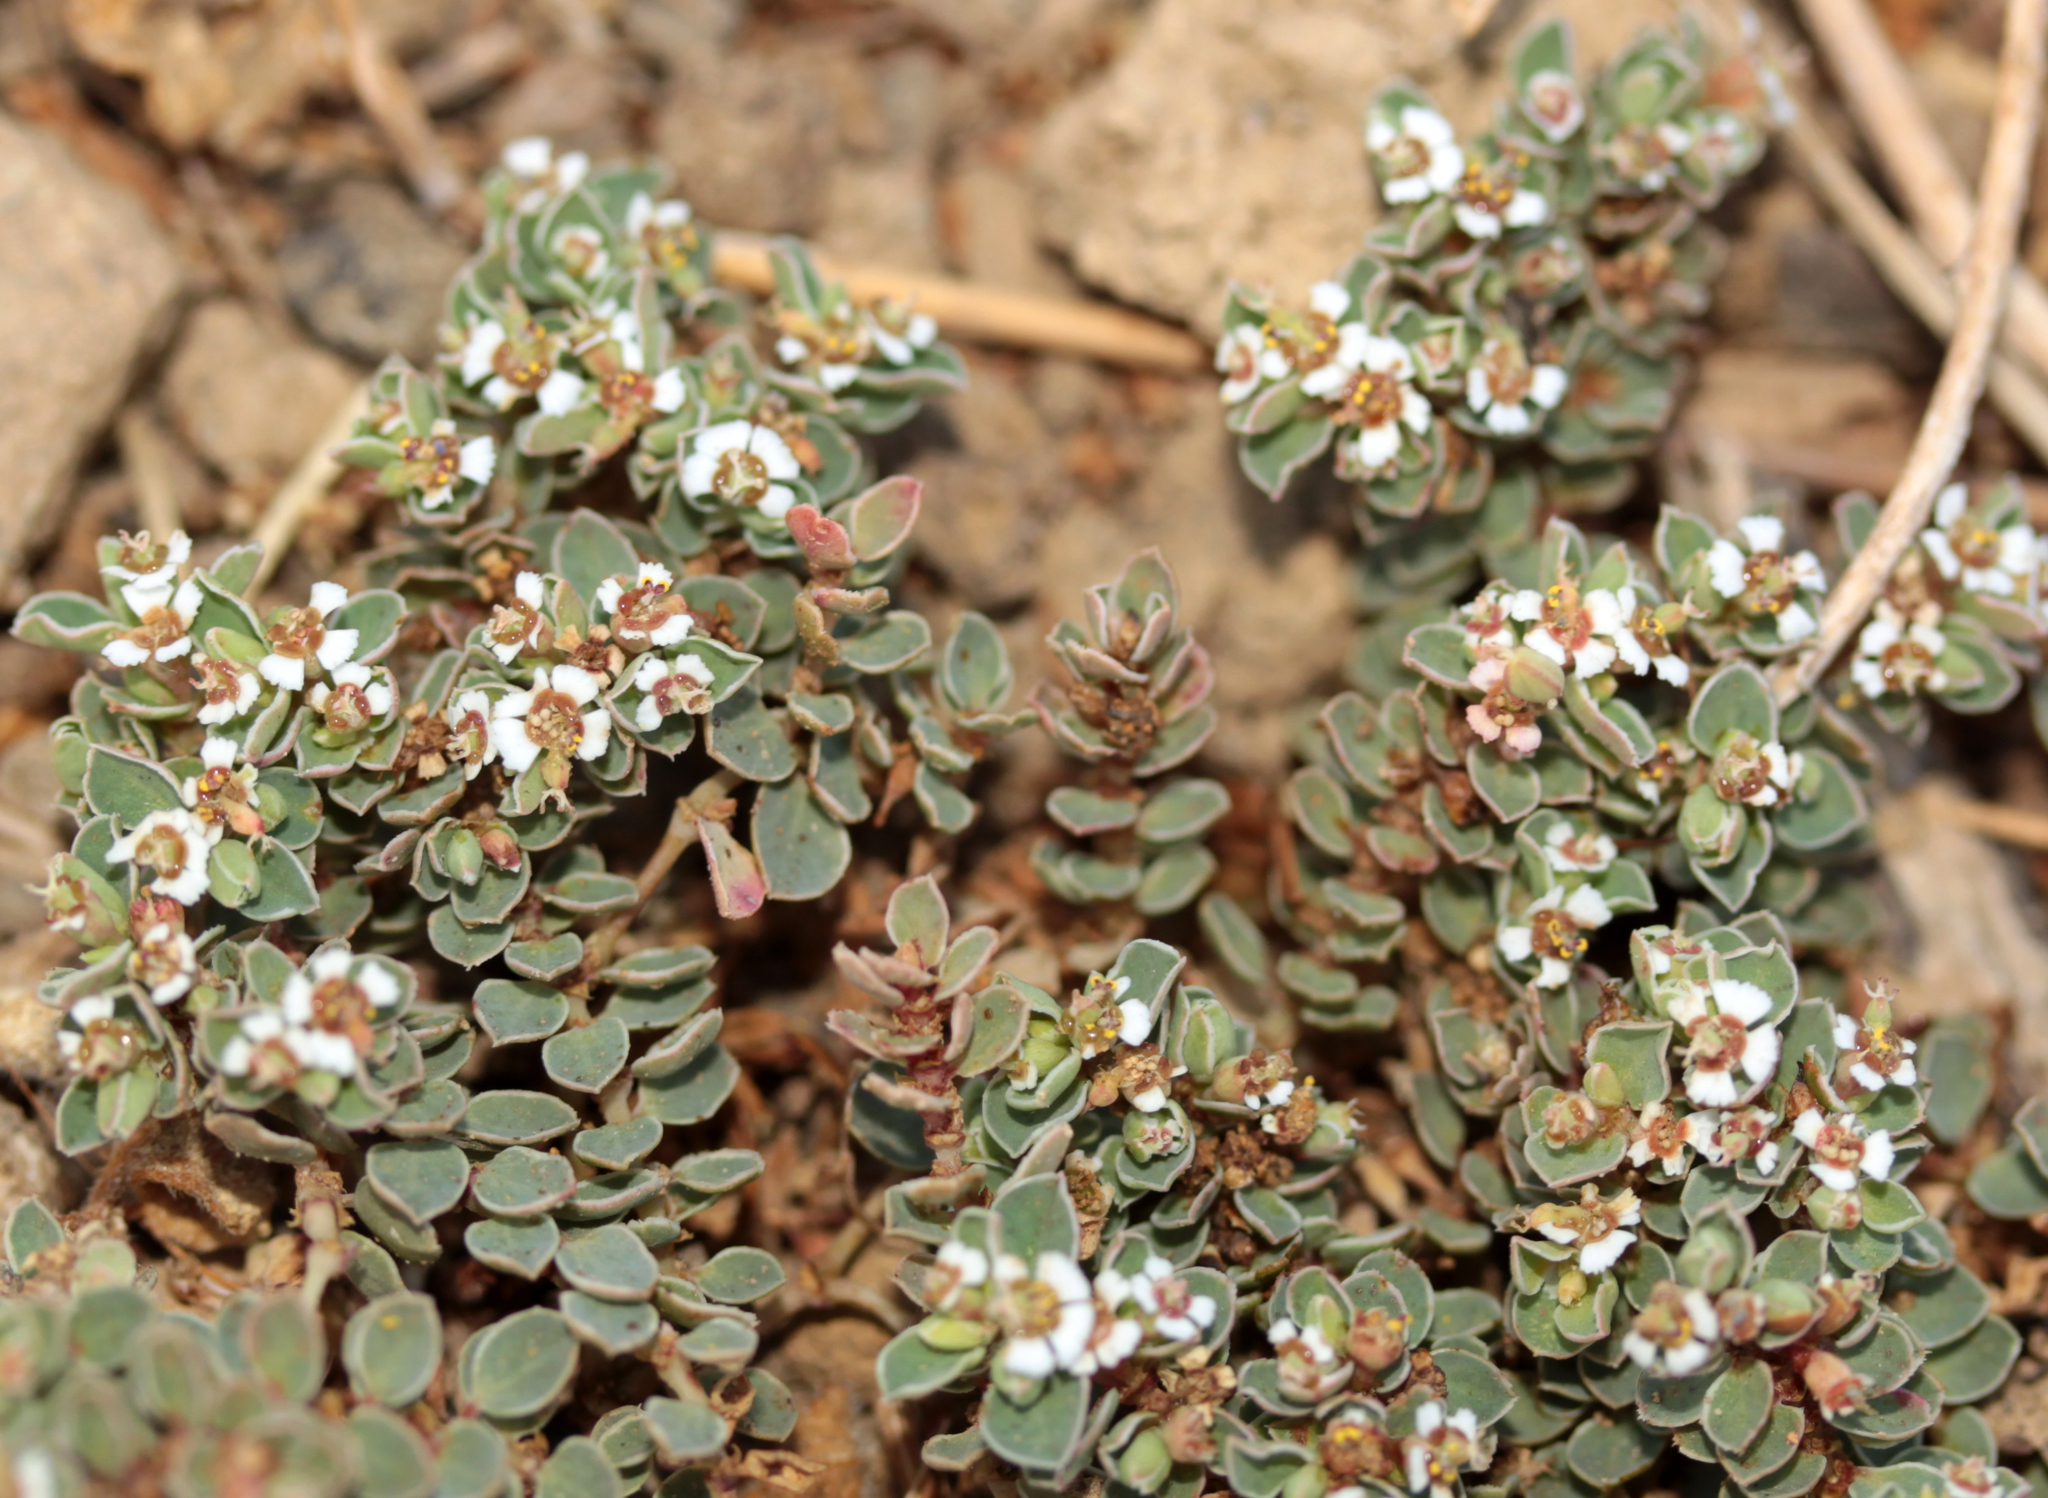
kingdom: Plantae
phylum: Tracheophyta
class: Magnoliopsida
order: Malpighiales
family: Euphorbiaceae
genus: Euphorbia
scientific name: Euphorbia albomarginata
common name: Whitemargin sandmat
